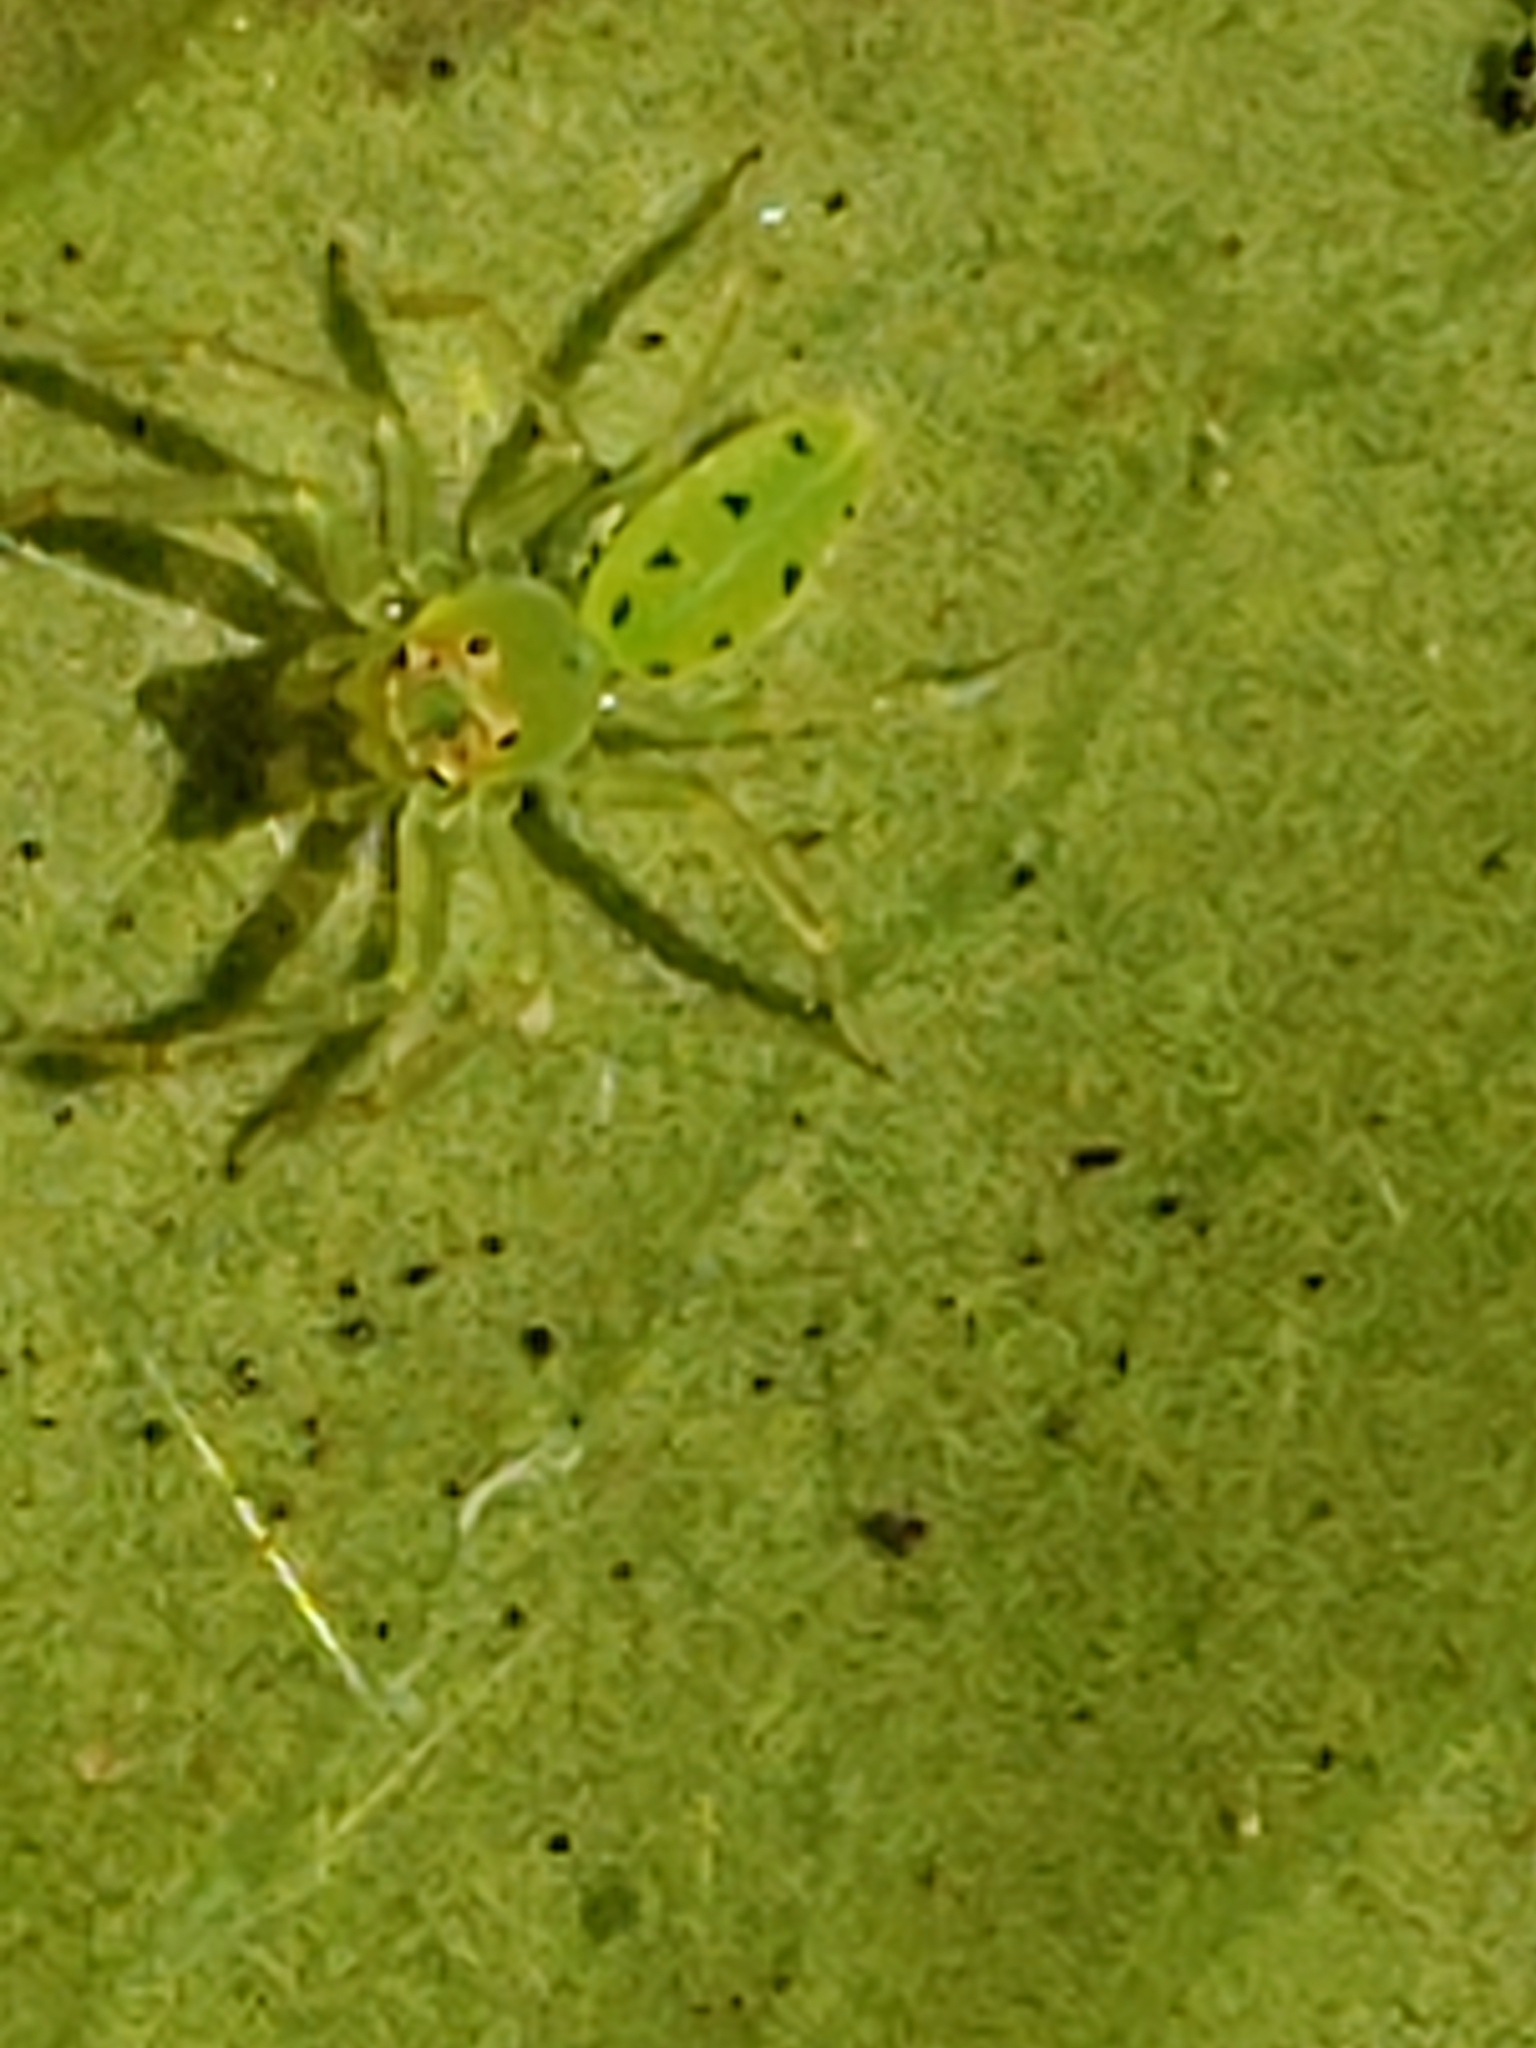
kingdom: Animalia
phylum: Arthropoda
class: Arachnida
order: Araneae
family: Salticidae
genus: Lyssomanes
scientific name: Lyssomanes viridis
